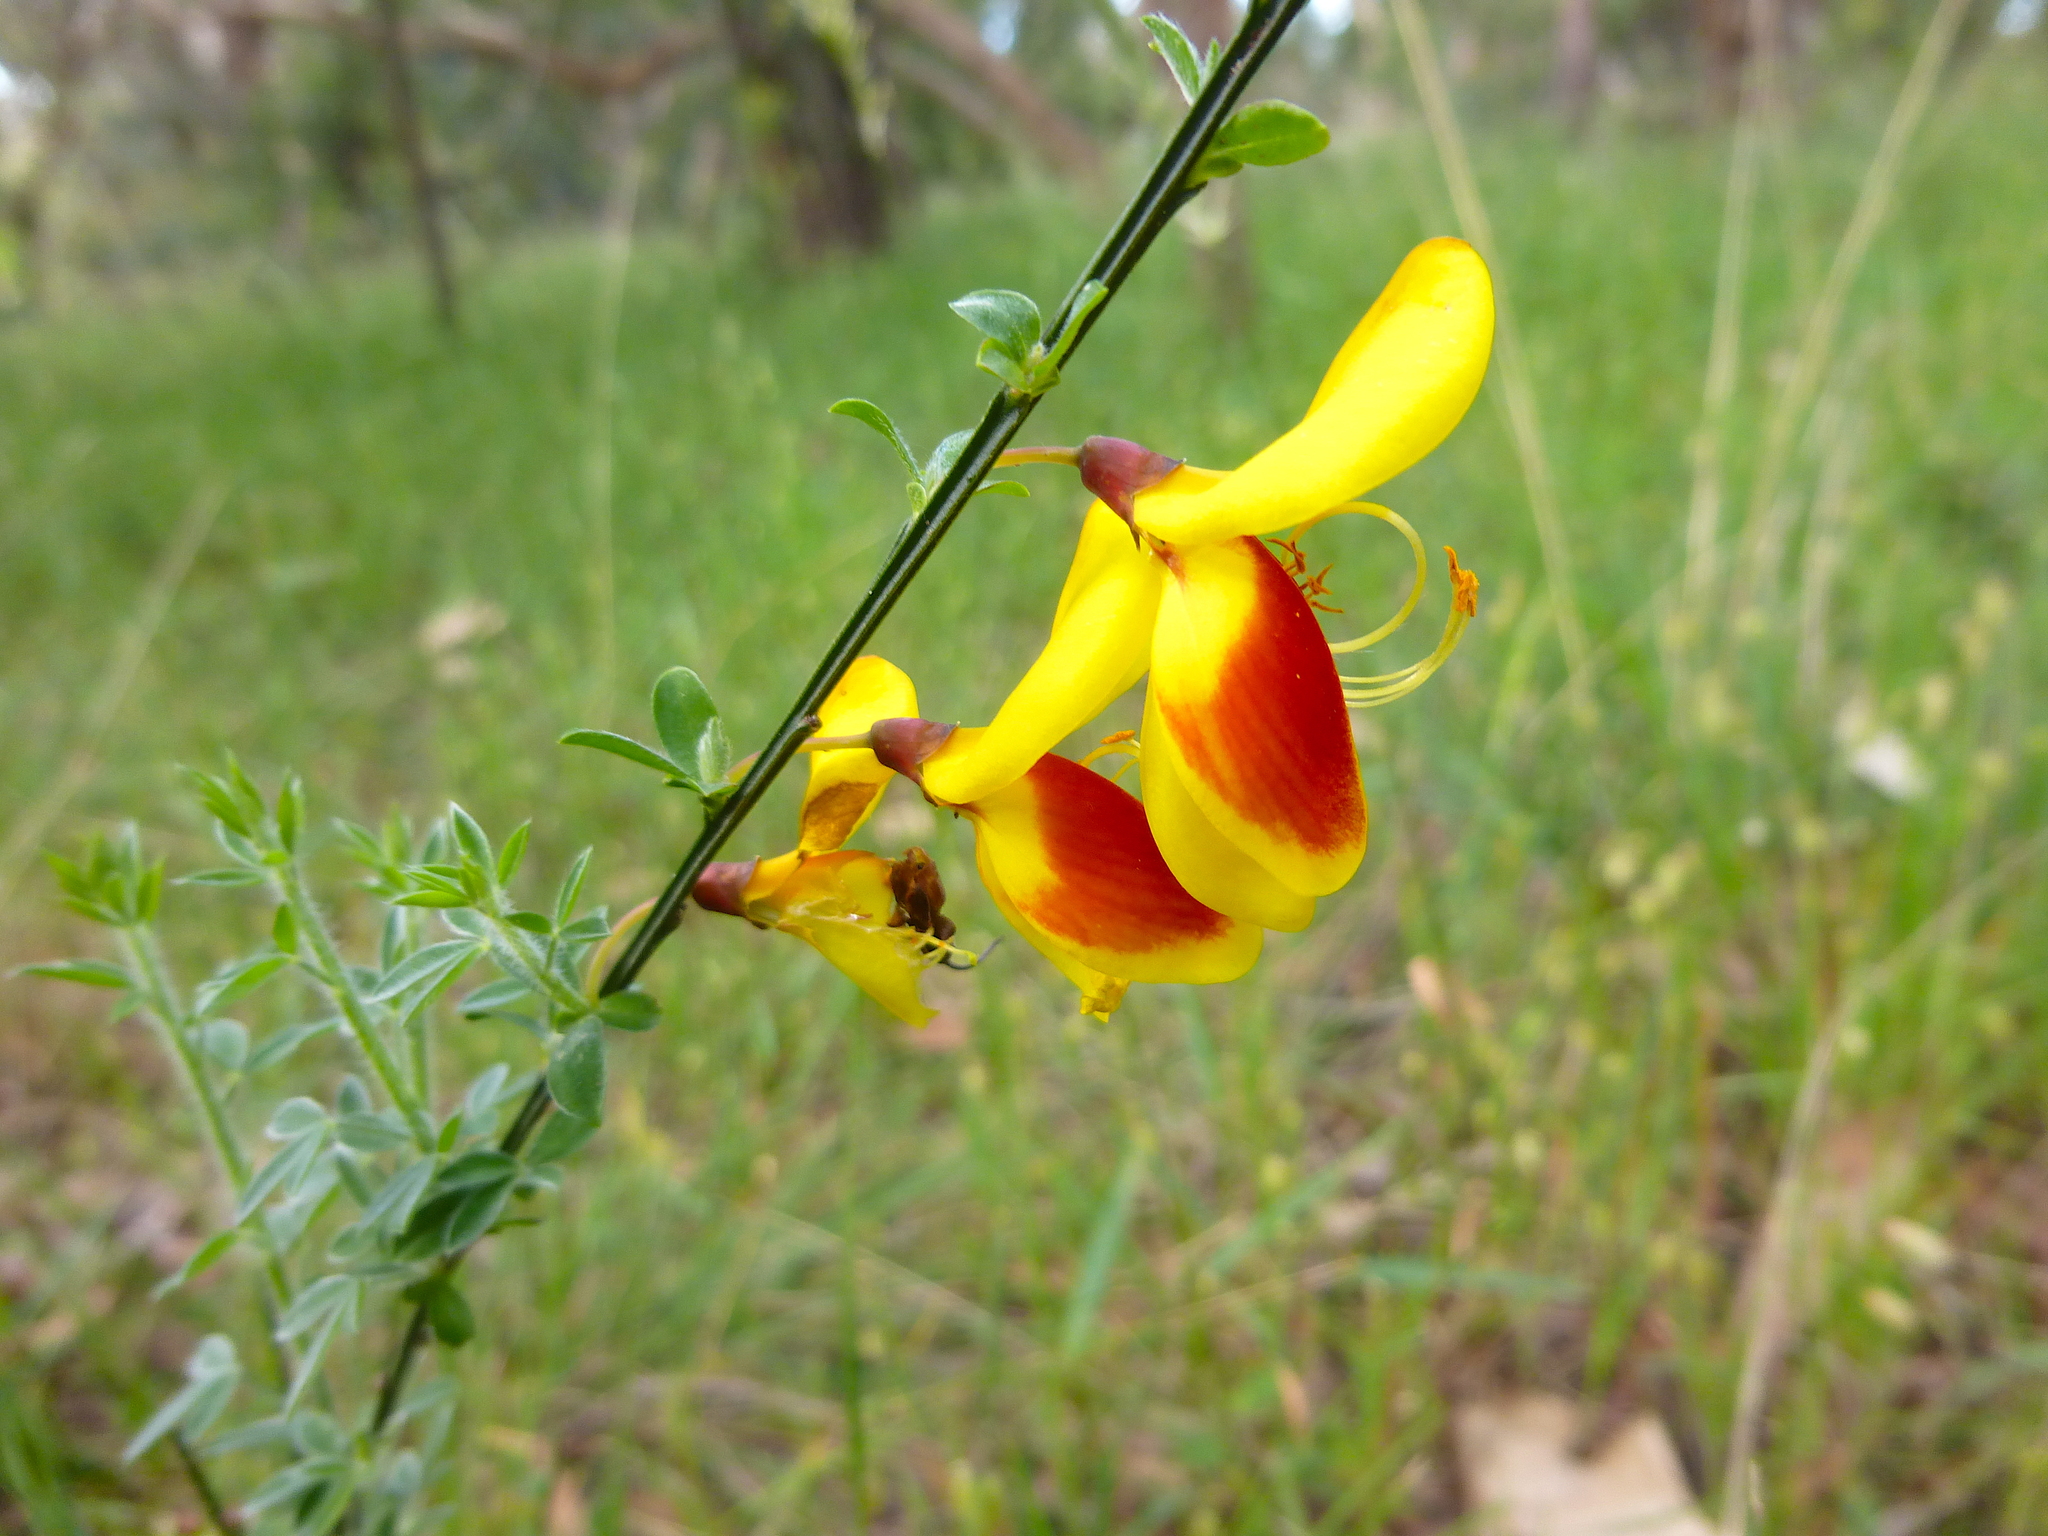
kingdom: Plantae
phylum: Tracheophyta
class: Magnoliopsida
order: Fabales
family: Fabaceae
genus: Cytisus
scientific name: Cytisus scoparius
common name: Scotch broom
